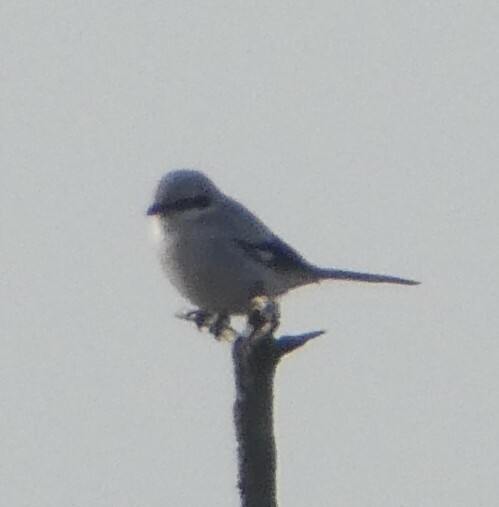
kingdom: Animalia
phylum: Chordata
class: Aves
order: Passeriformes
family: Laniidae
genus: Lanius
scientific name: Lanius excubitor
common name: Great grey shrike
